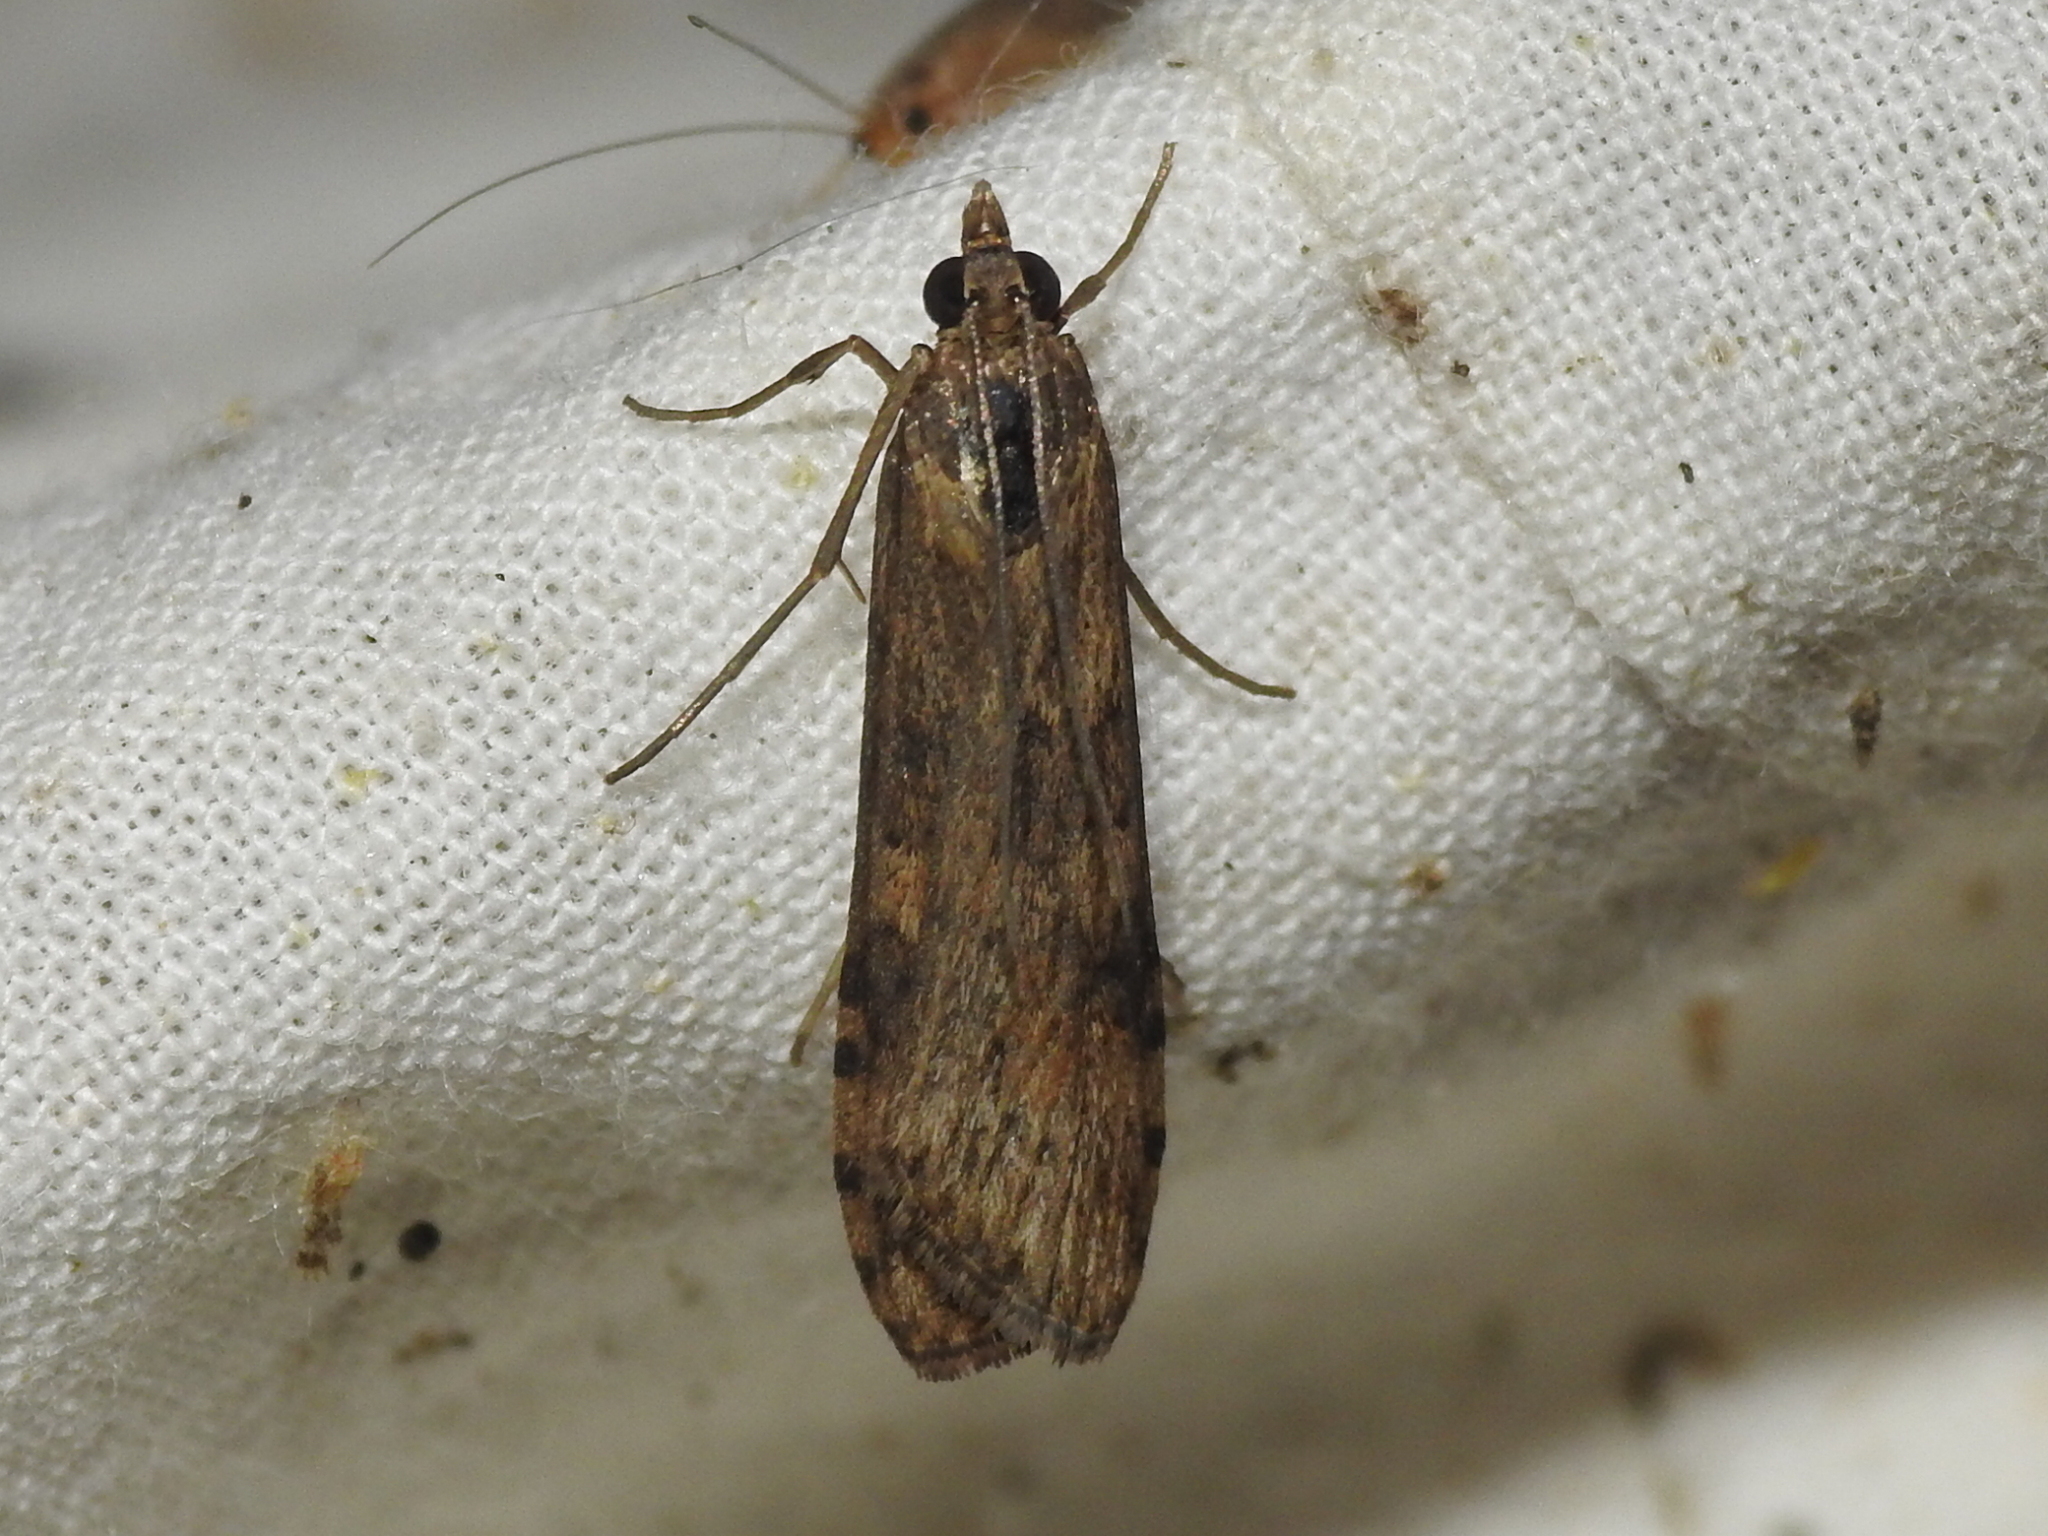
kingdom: Animalia
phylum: Arthropoda
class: Insecta
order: Lepidoptera
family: Crambidae
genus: Nomophila
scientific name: Nomophila nearctica
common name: American rush veneer
